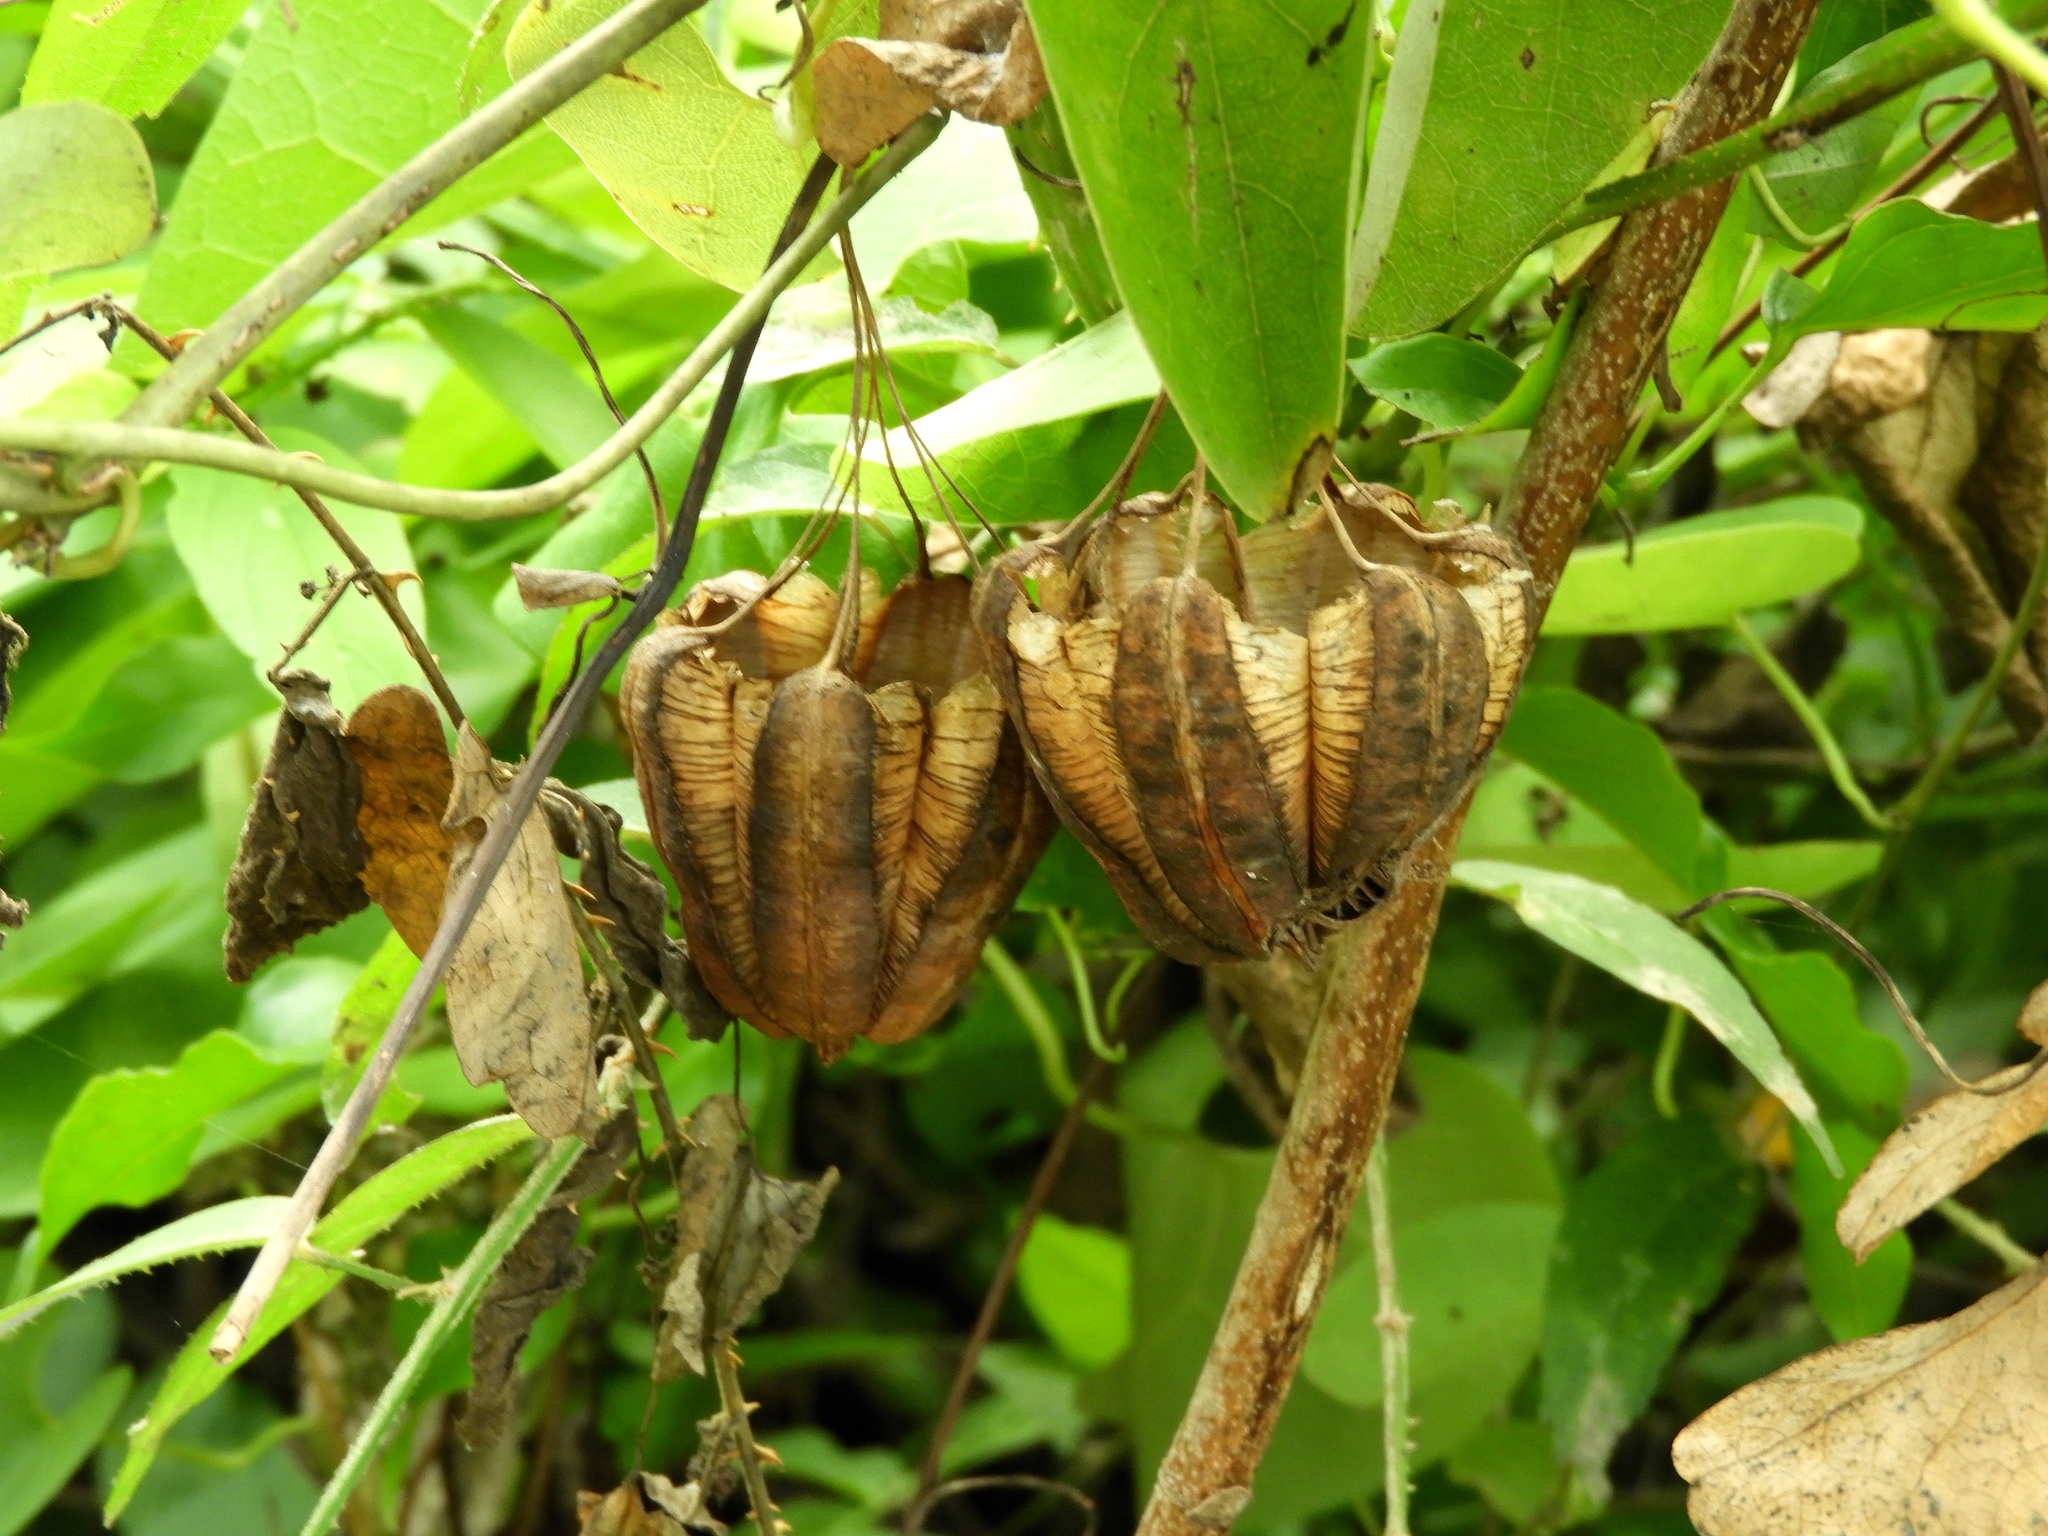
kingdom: Plantae
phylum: Tracheophyta
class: Magnoliopsida
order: Piperales
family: Aristolochiaceae
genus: Aristolochia
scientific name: Aristolochia taliscana
